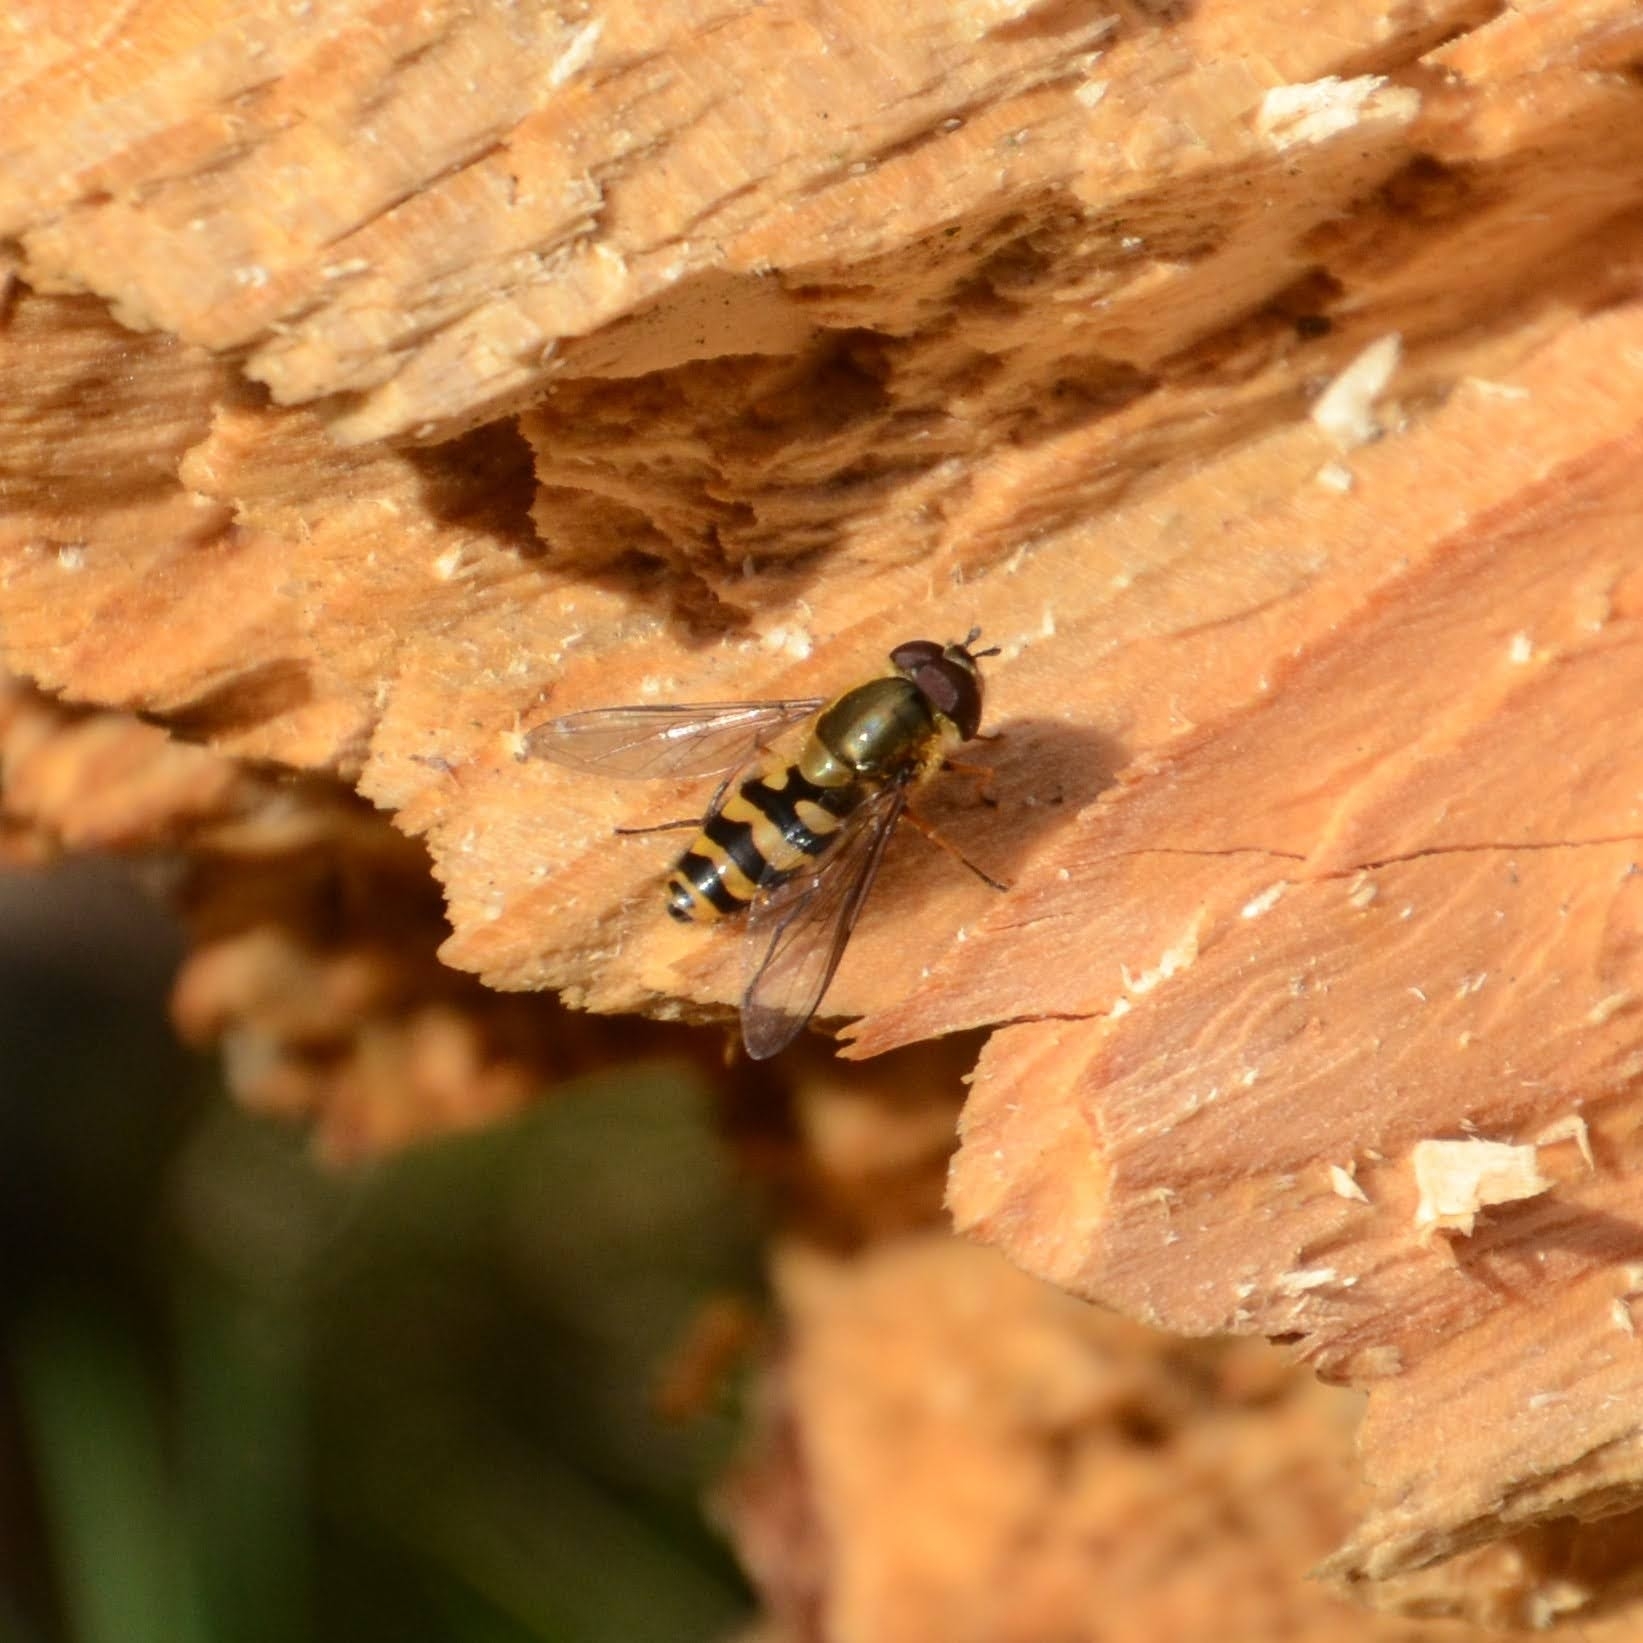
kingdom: Animalia
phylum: Arthropoda
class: Insecta
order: Diptera
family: Syrphidae
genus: Syrphus
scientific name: Syrphus
